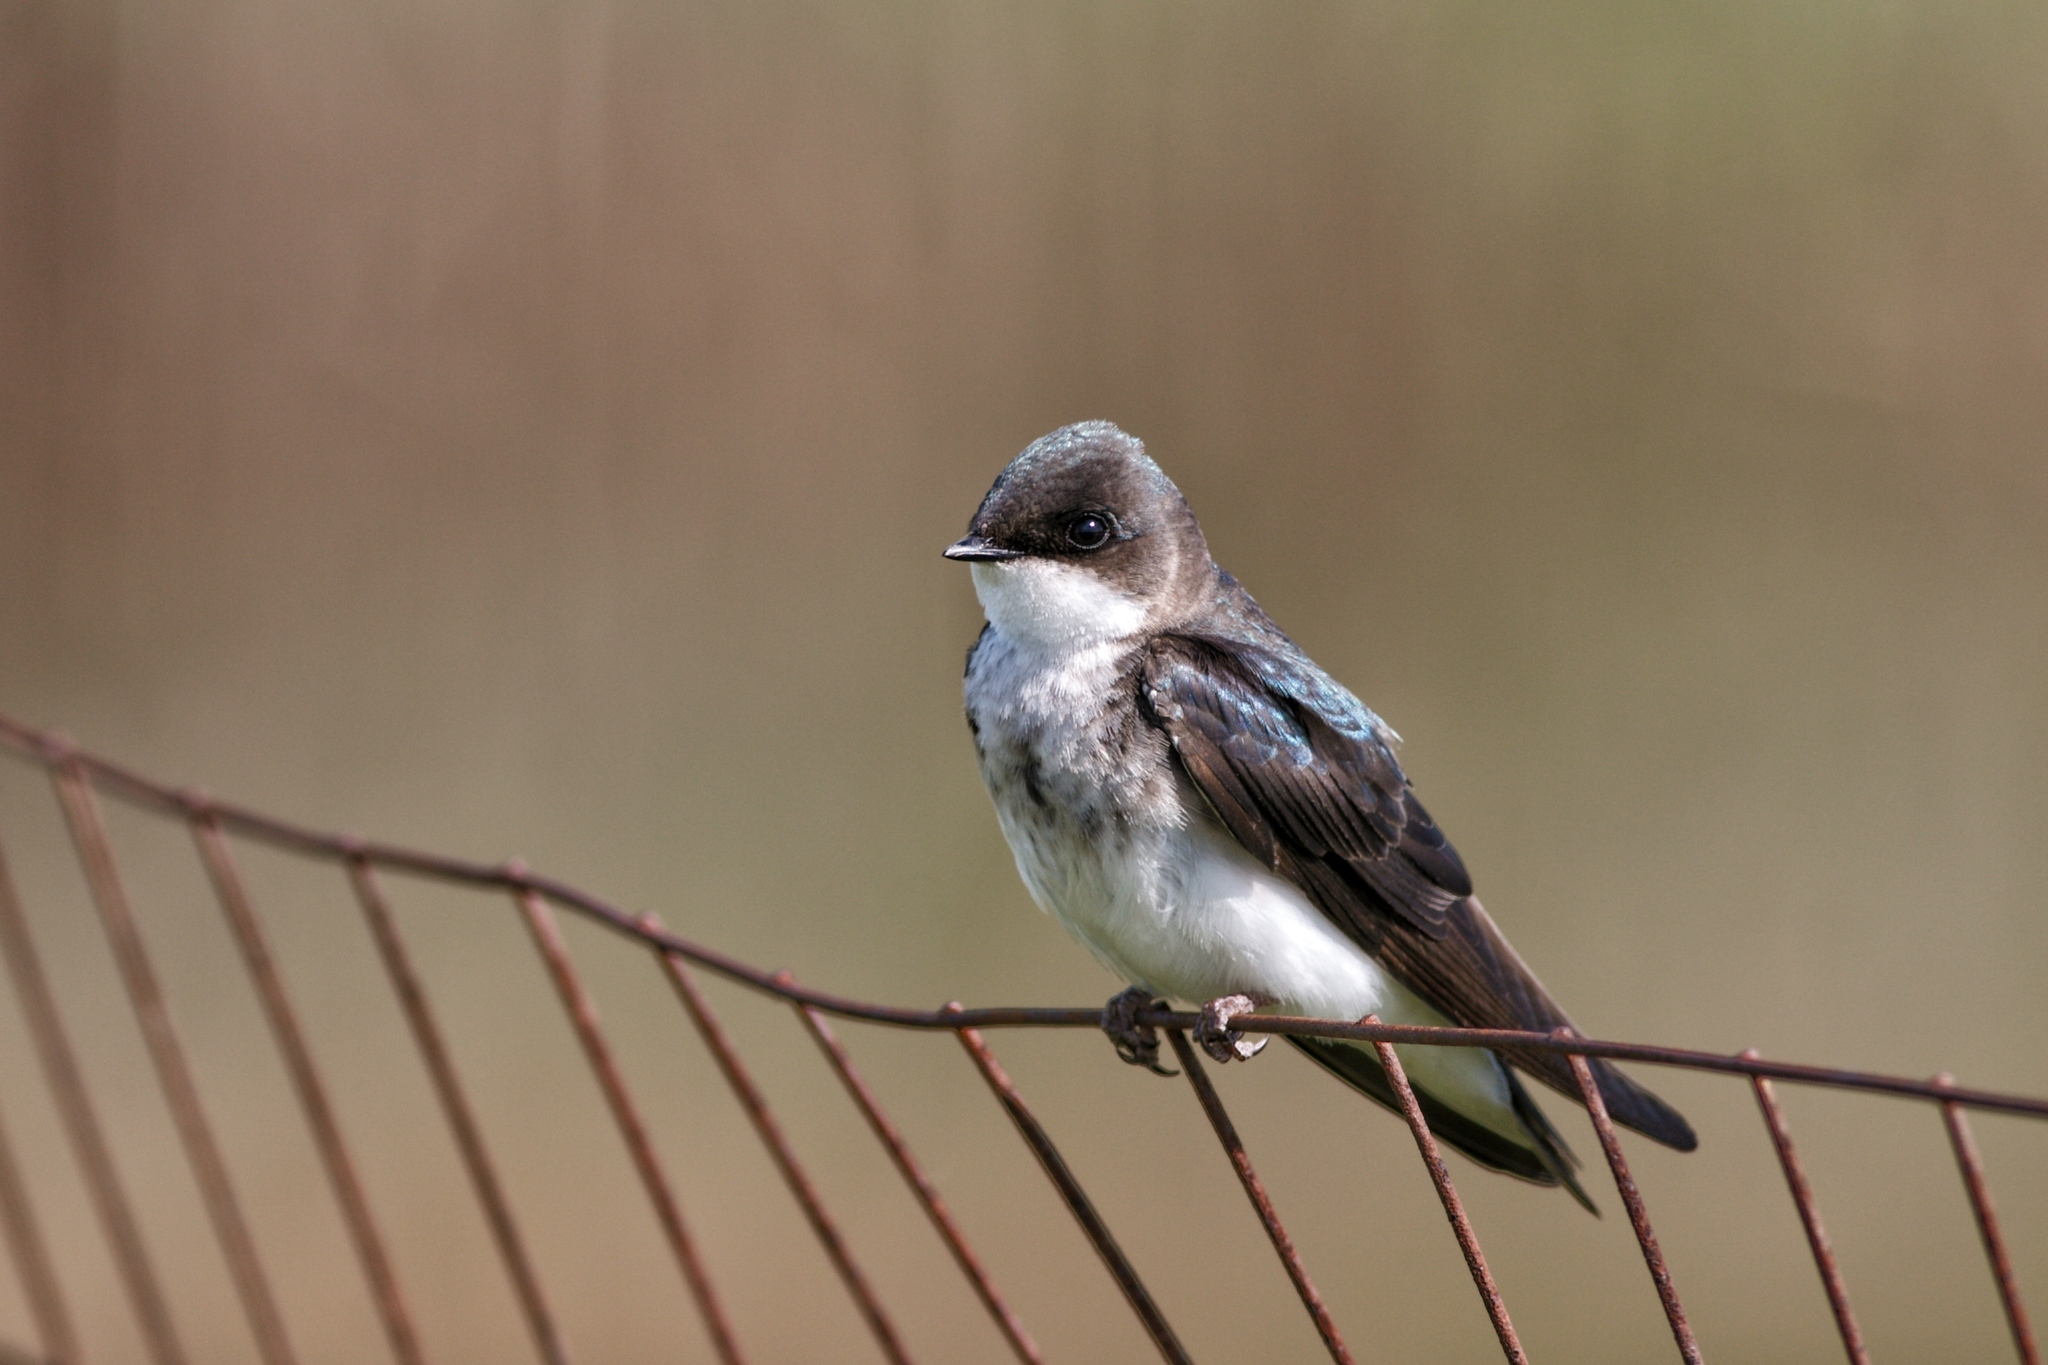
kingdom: Animalia
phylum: Chordata
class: Aves
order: Passeriformes
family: Hirundinidae
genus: Tachycineta
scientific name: Tachycineta bicolor
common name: Tree swallow
